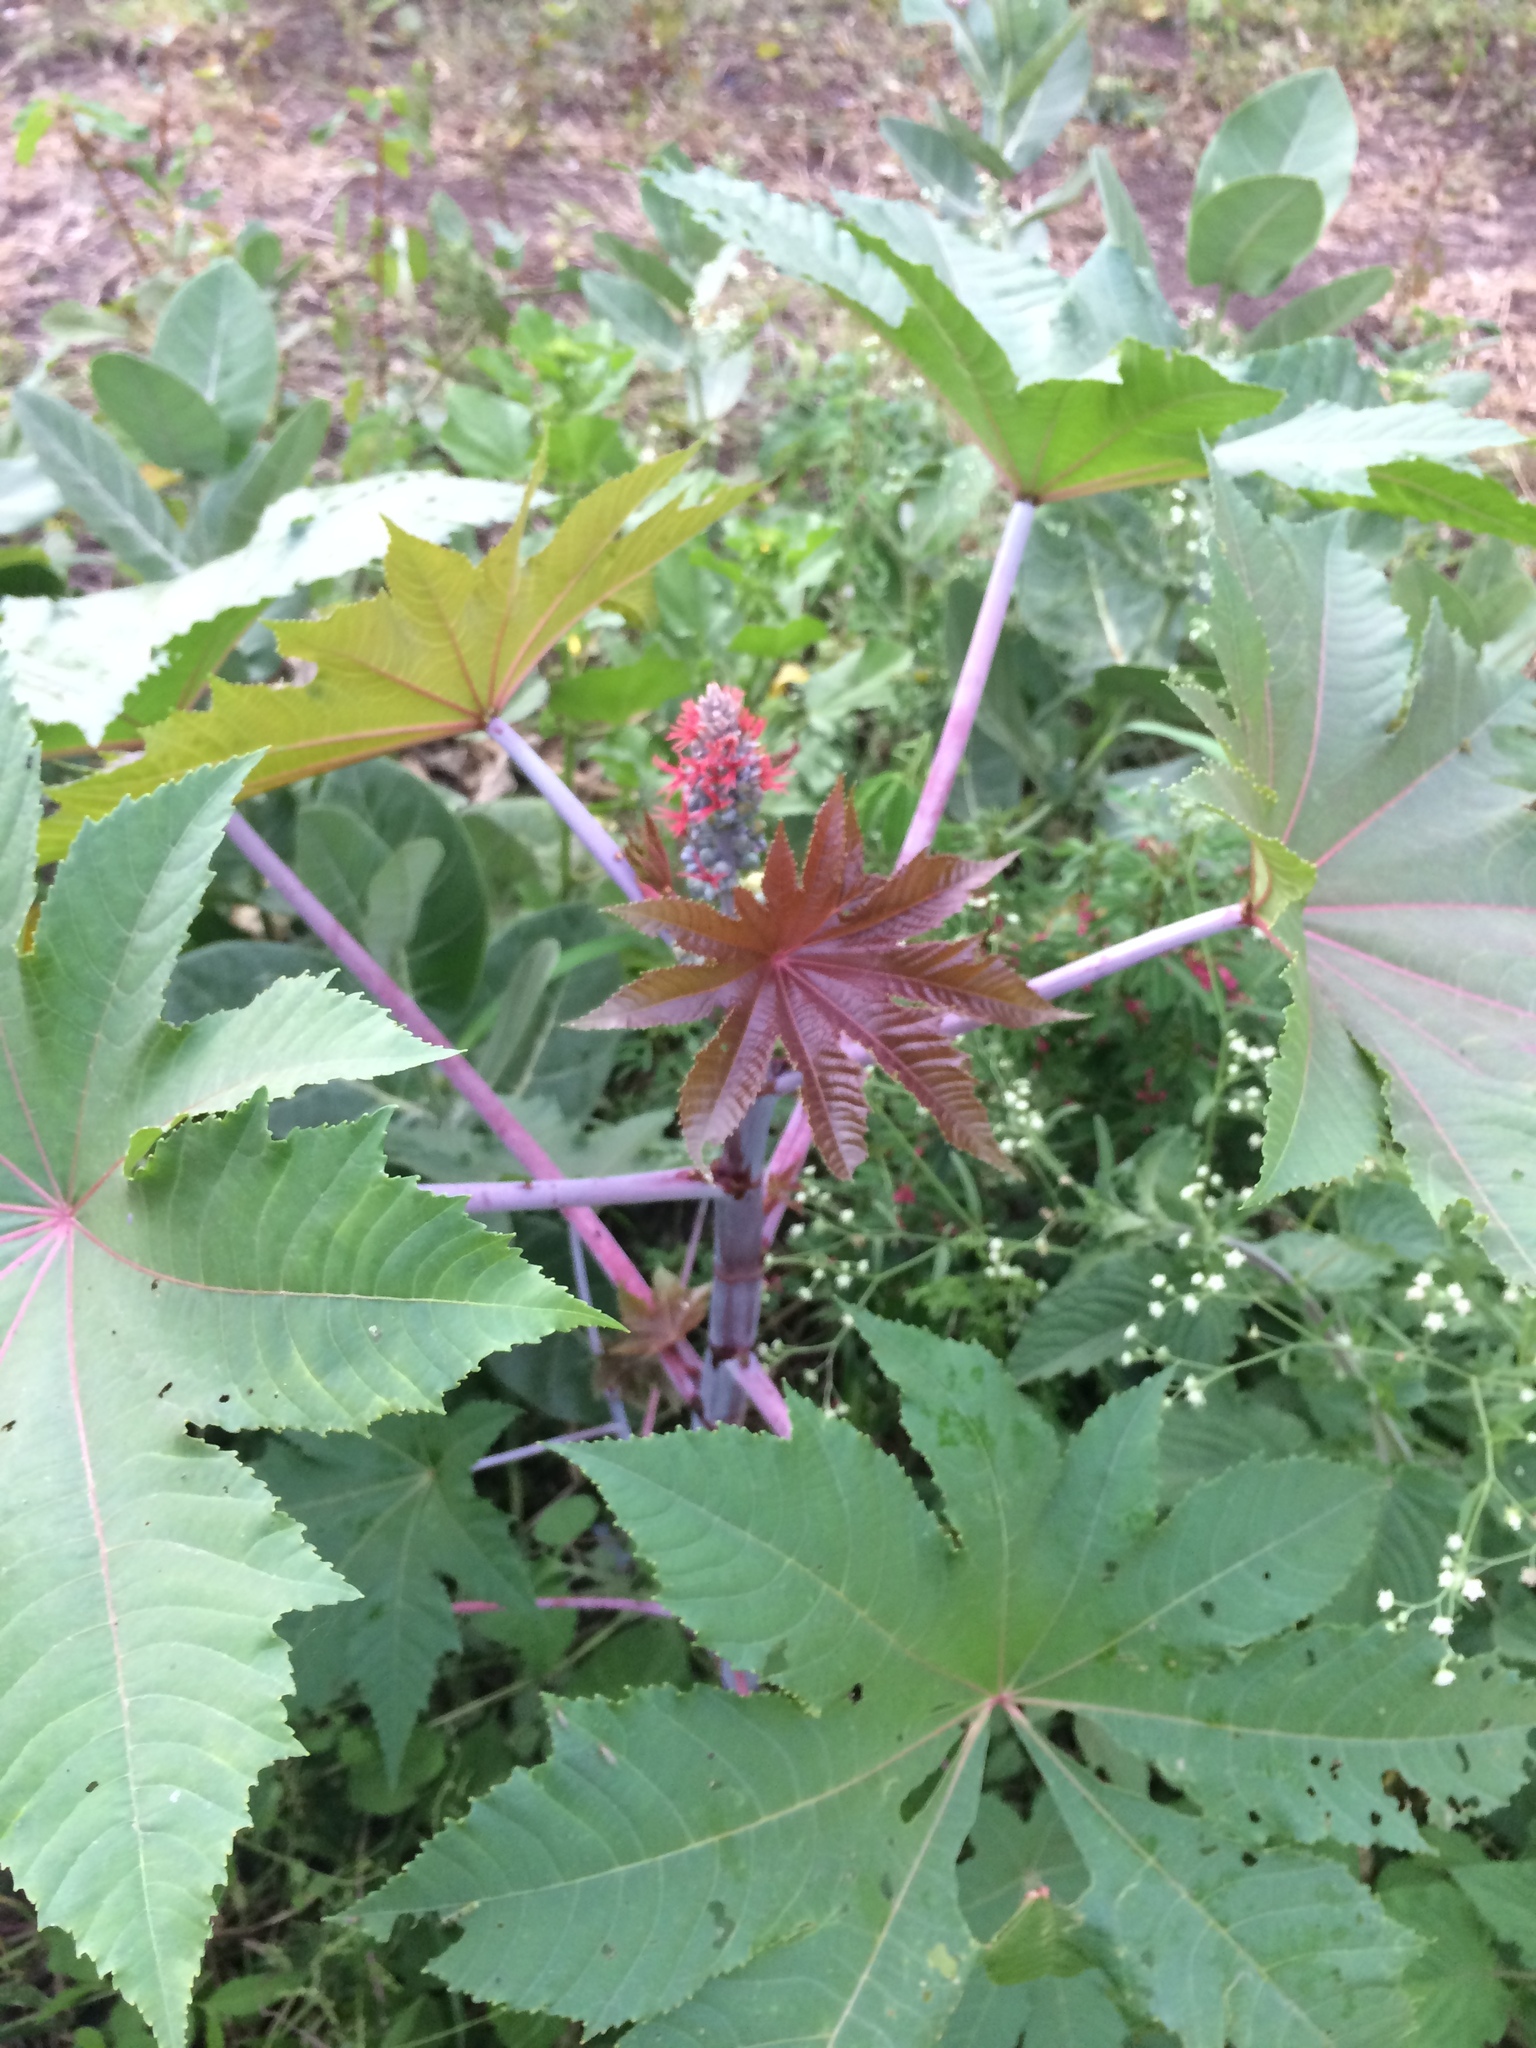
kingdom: Plantae
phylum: Tracheophyta
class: Magnoliopsida
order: Malpighiales
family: Euphorbiaceae
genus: Ricinus
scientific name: Ricinus communis
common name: Castor-oil-plant
